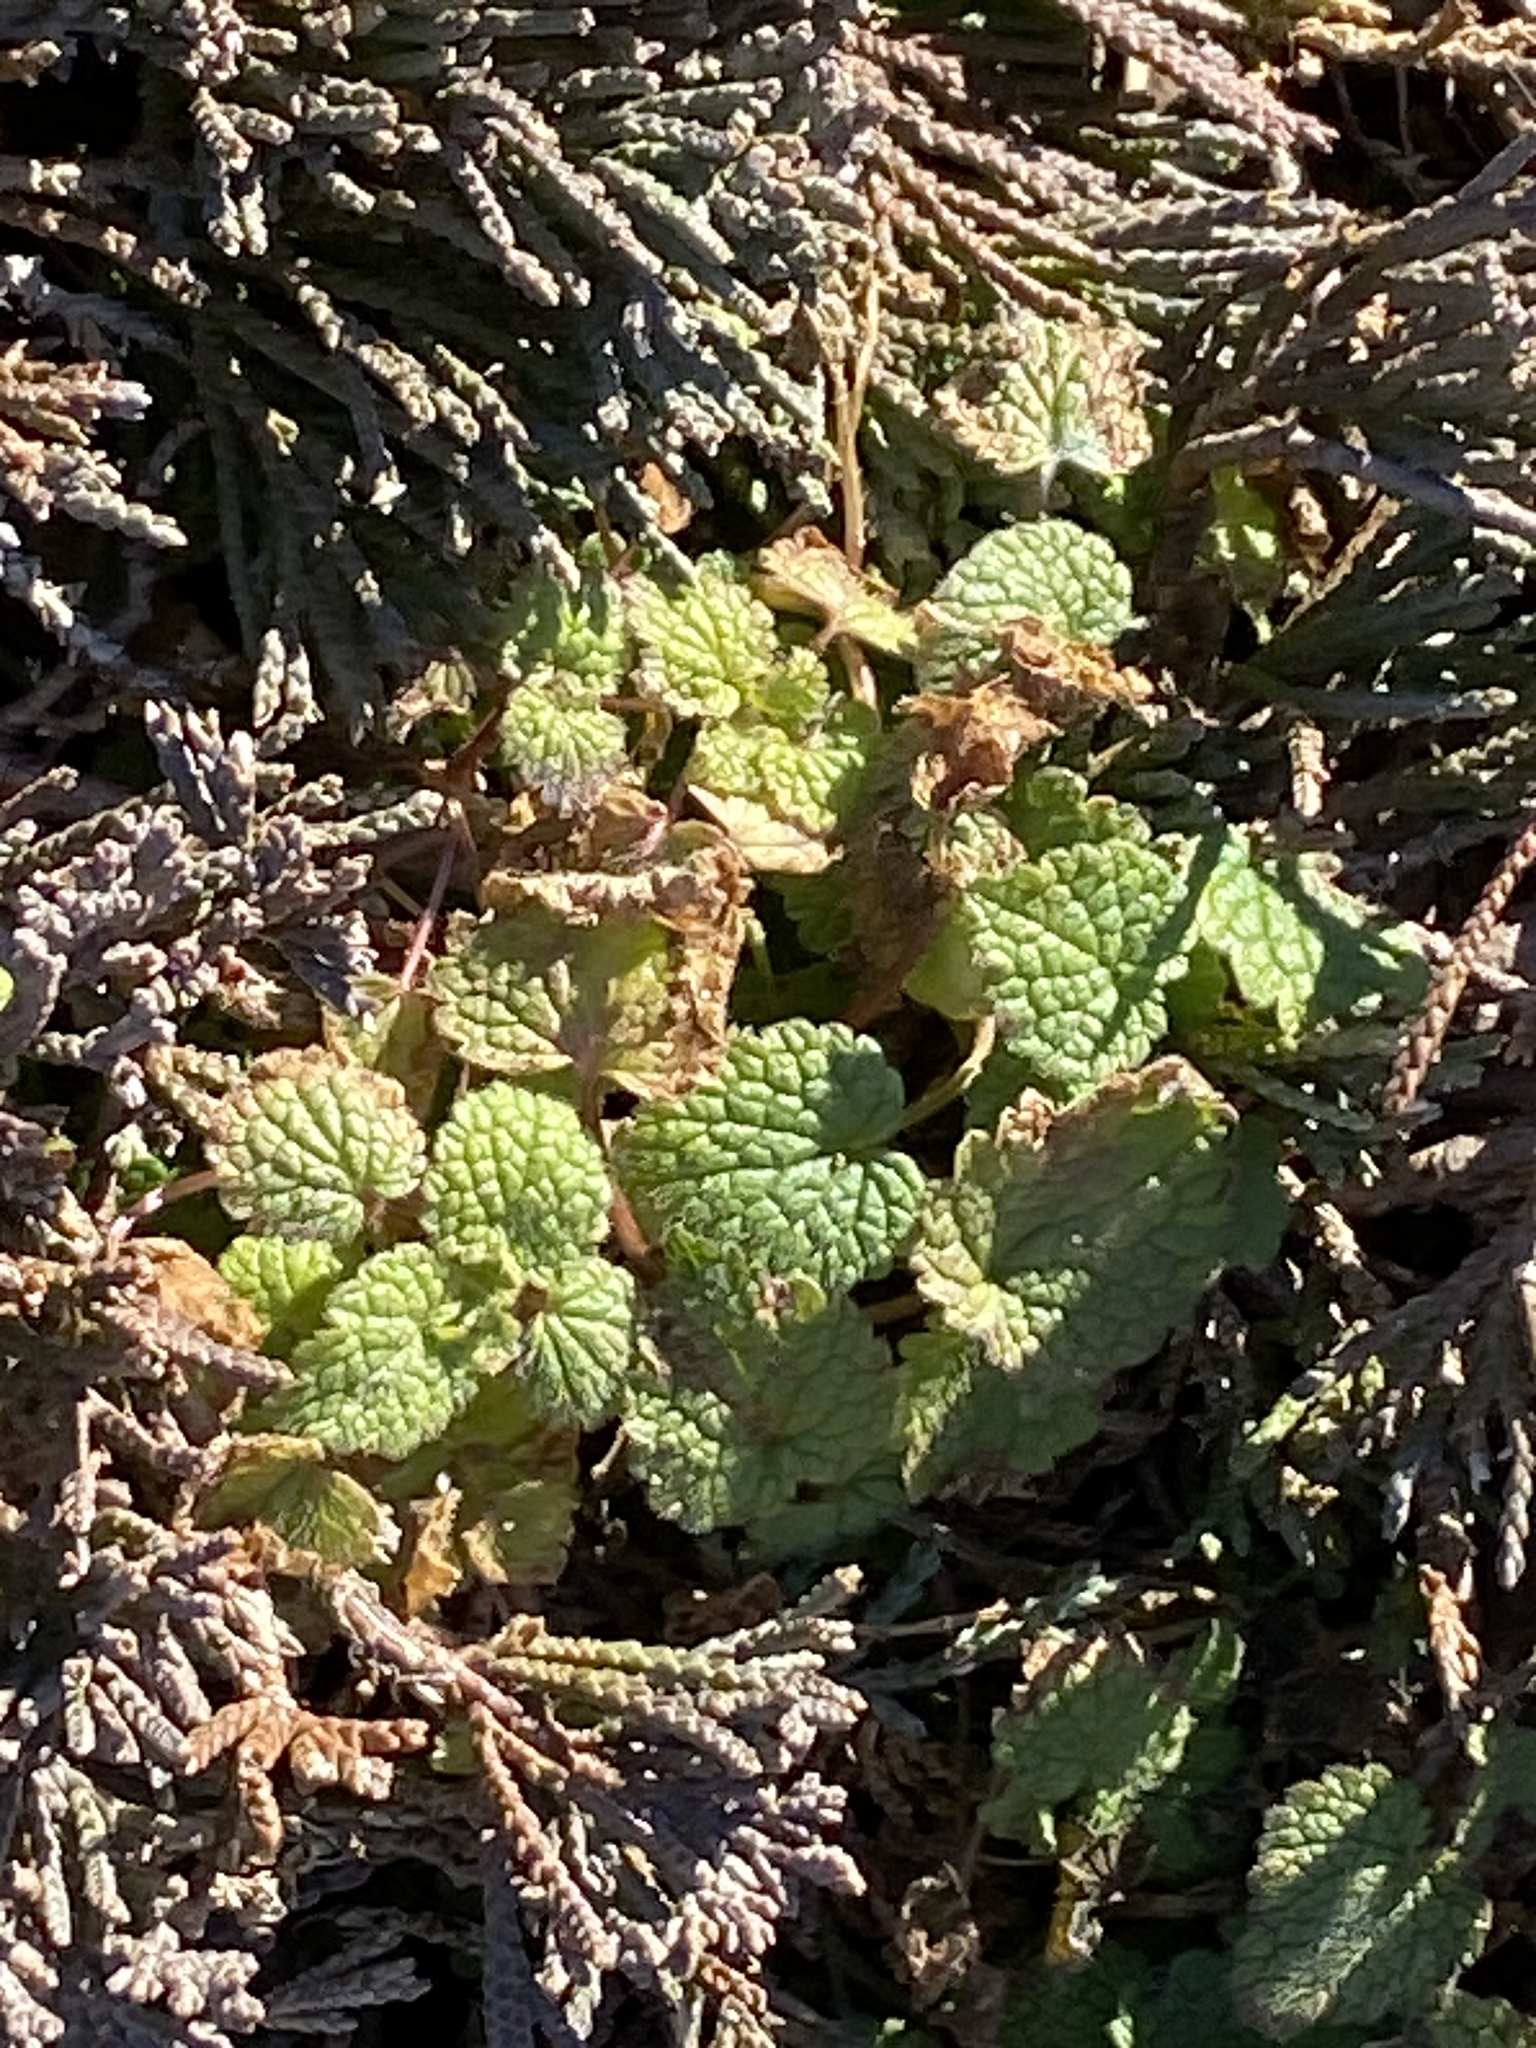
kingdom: Plantae
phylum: Tracheophyta
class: Magnoliopsida
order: Lamiales
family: Lamiaceae
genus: Lamium
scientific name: Lamium purpureum
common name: Red dead-nettle
